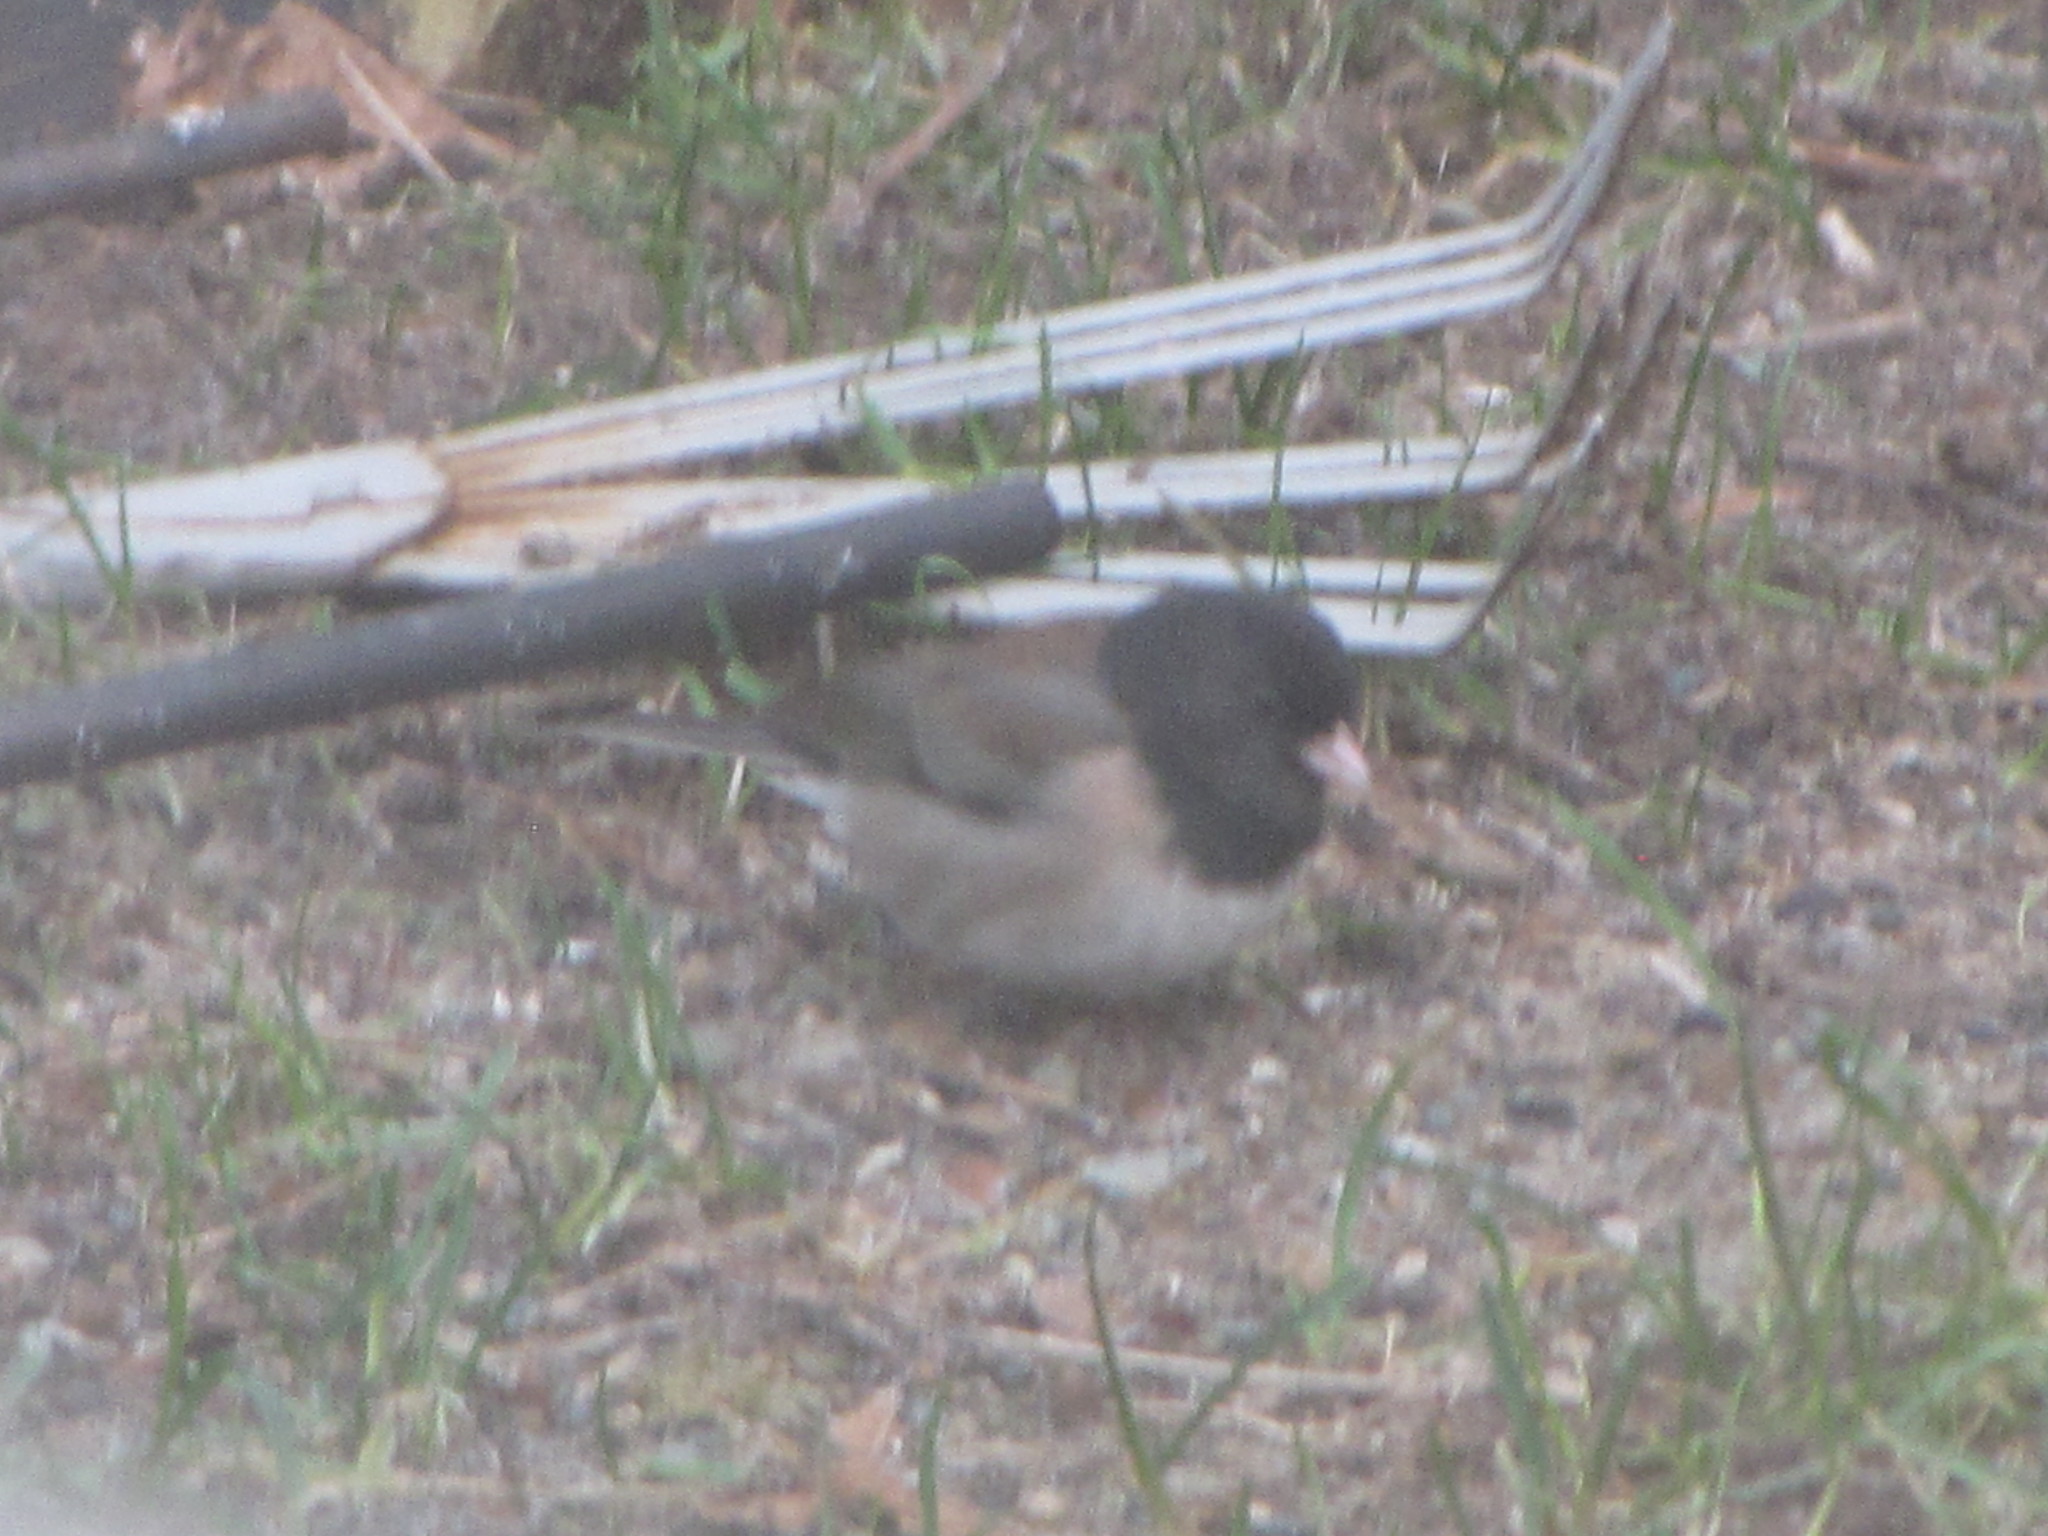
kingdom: Animalia
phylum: Chordata
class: Aves
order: Passeriformes
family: Passerellidae
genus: Junco
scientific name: Junco hyemalis
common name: Dark-eyed junco
